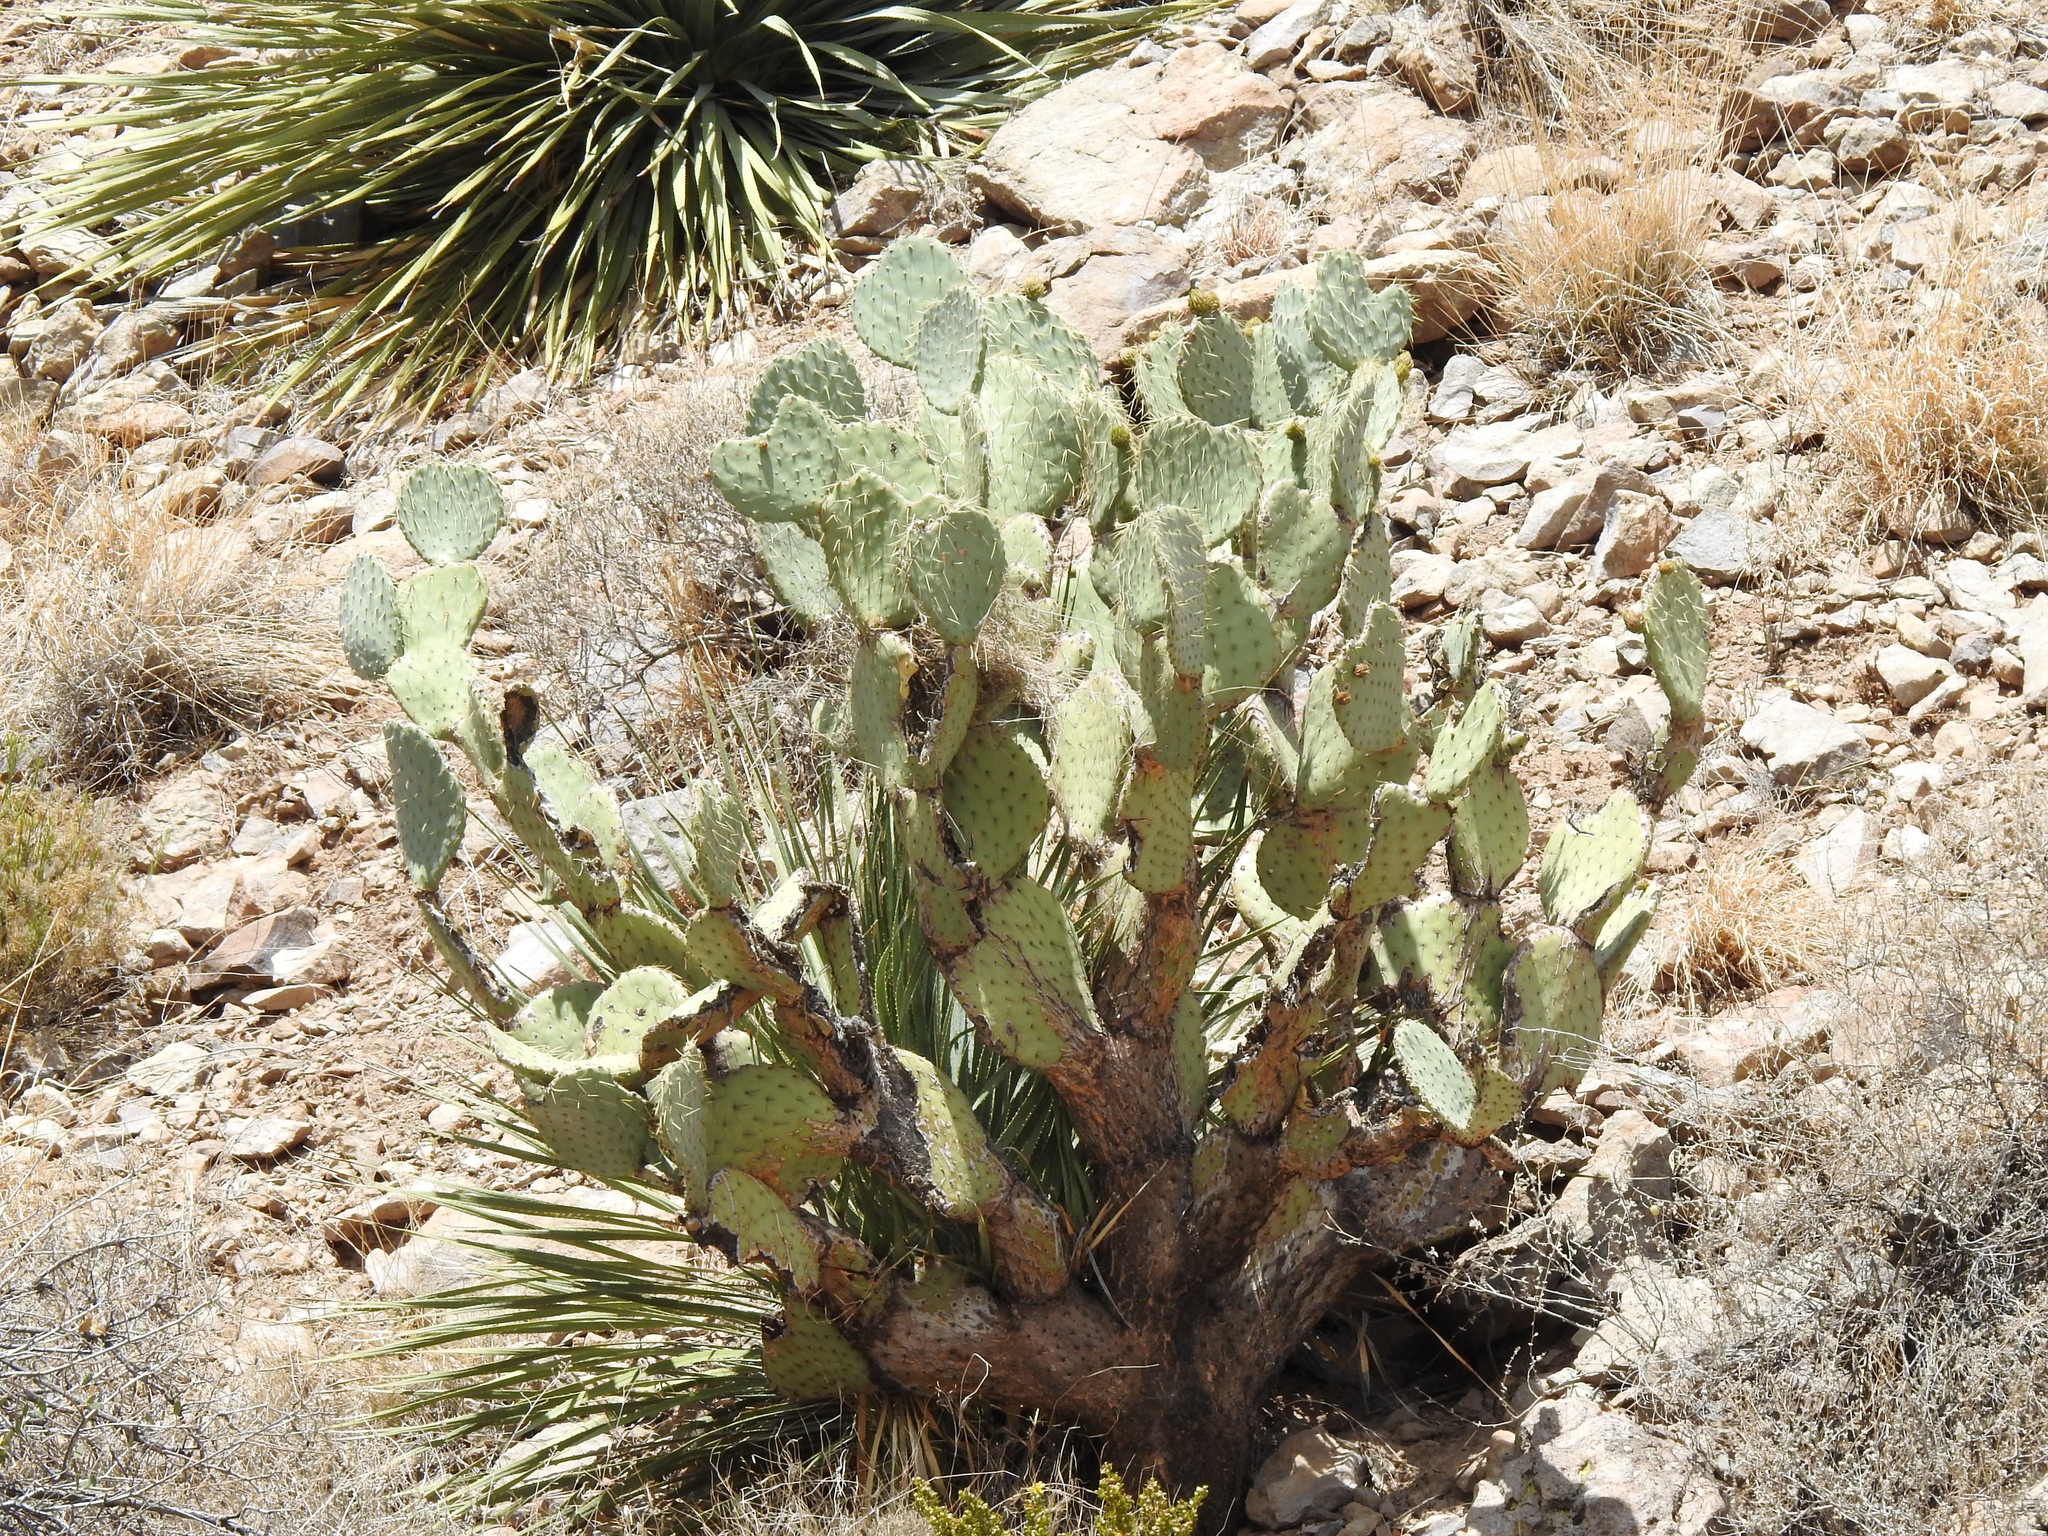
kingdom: Plantae
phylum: Tracheophyta
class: Magnoliopsida
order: Caryophyllales
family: Cactaceae
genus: Opuntia
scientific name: Opuntia engelmannii
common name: Cactus-apple
